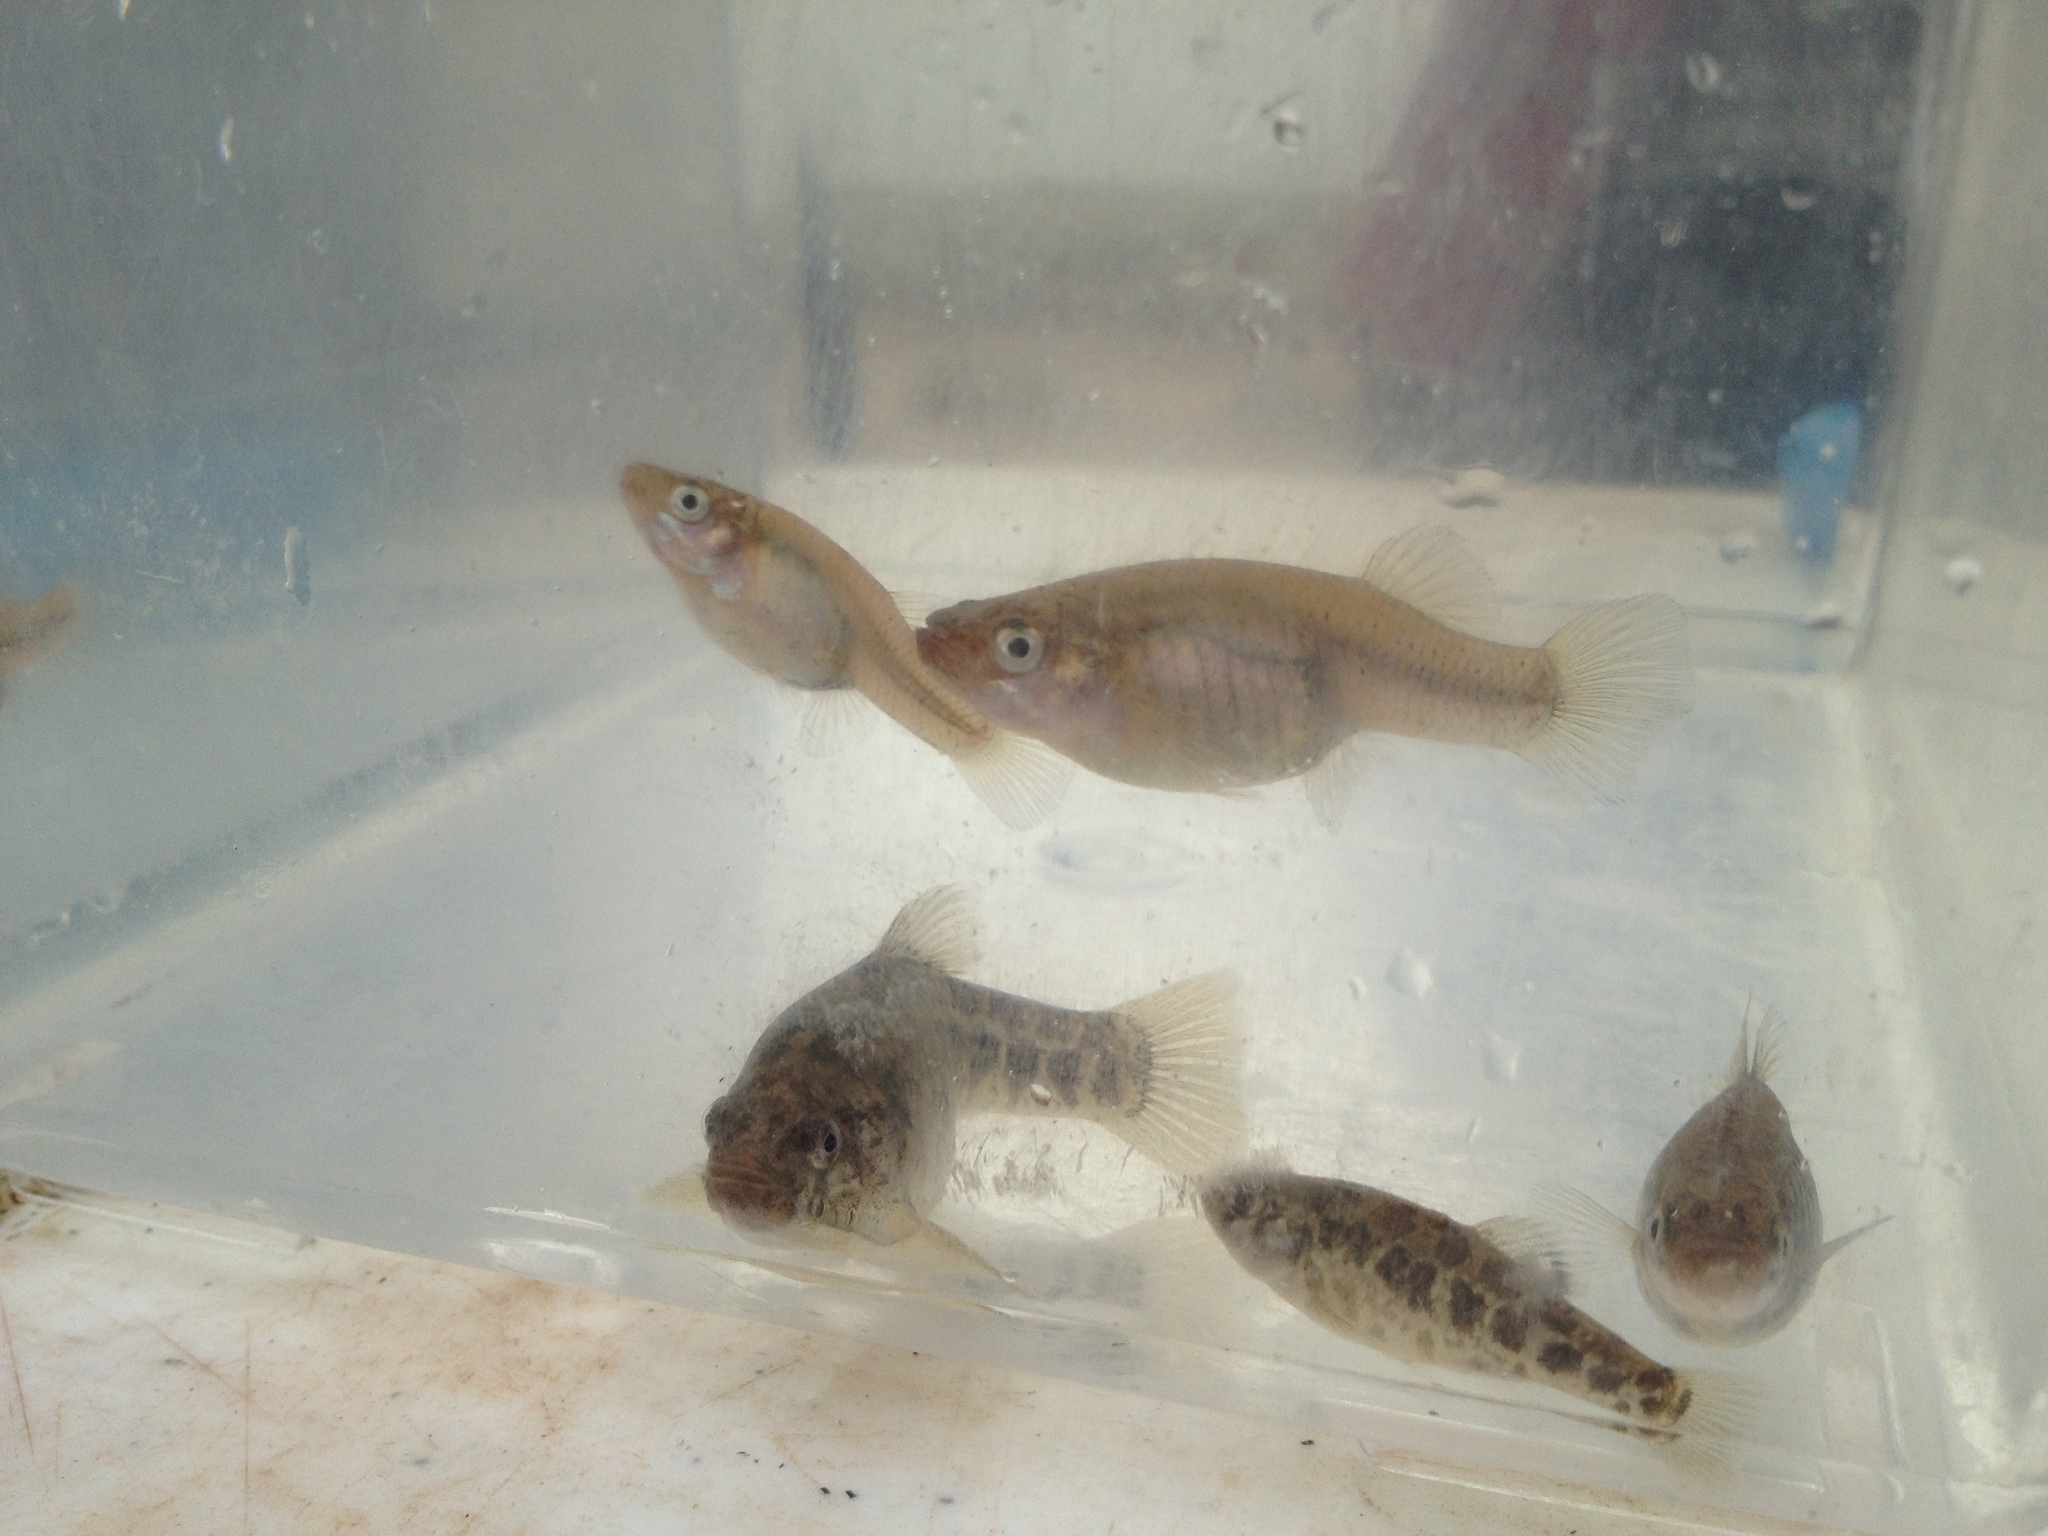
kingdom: Animalia
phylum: Chordata
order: Cyprinodontiformes
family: Poeciliidae
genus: Gambusia
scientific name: Gambusia nobilis
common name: Pecos gambusia
